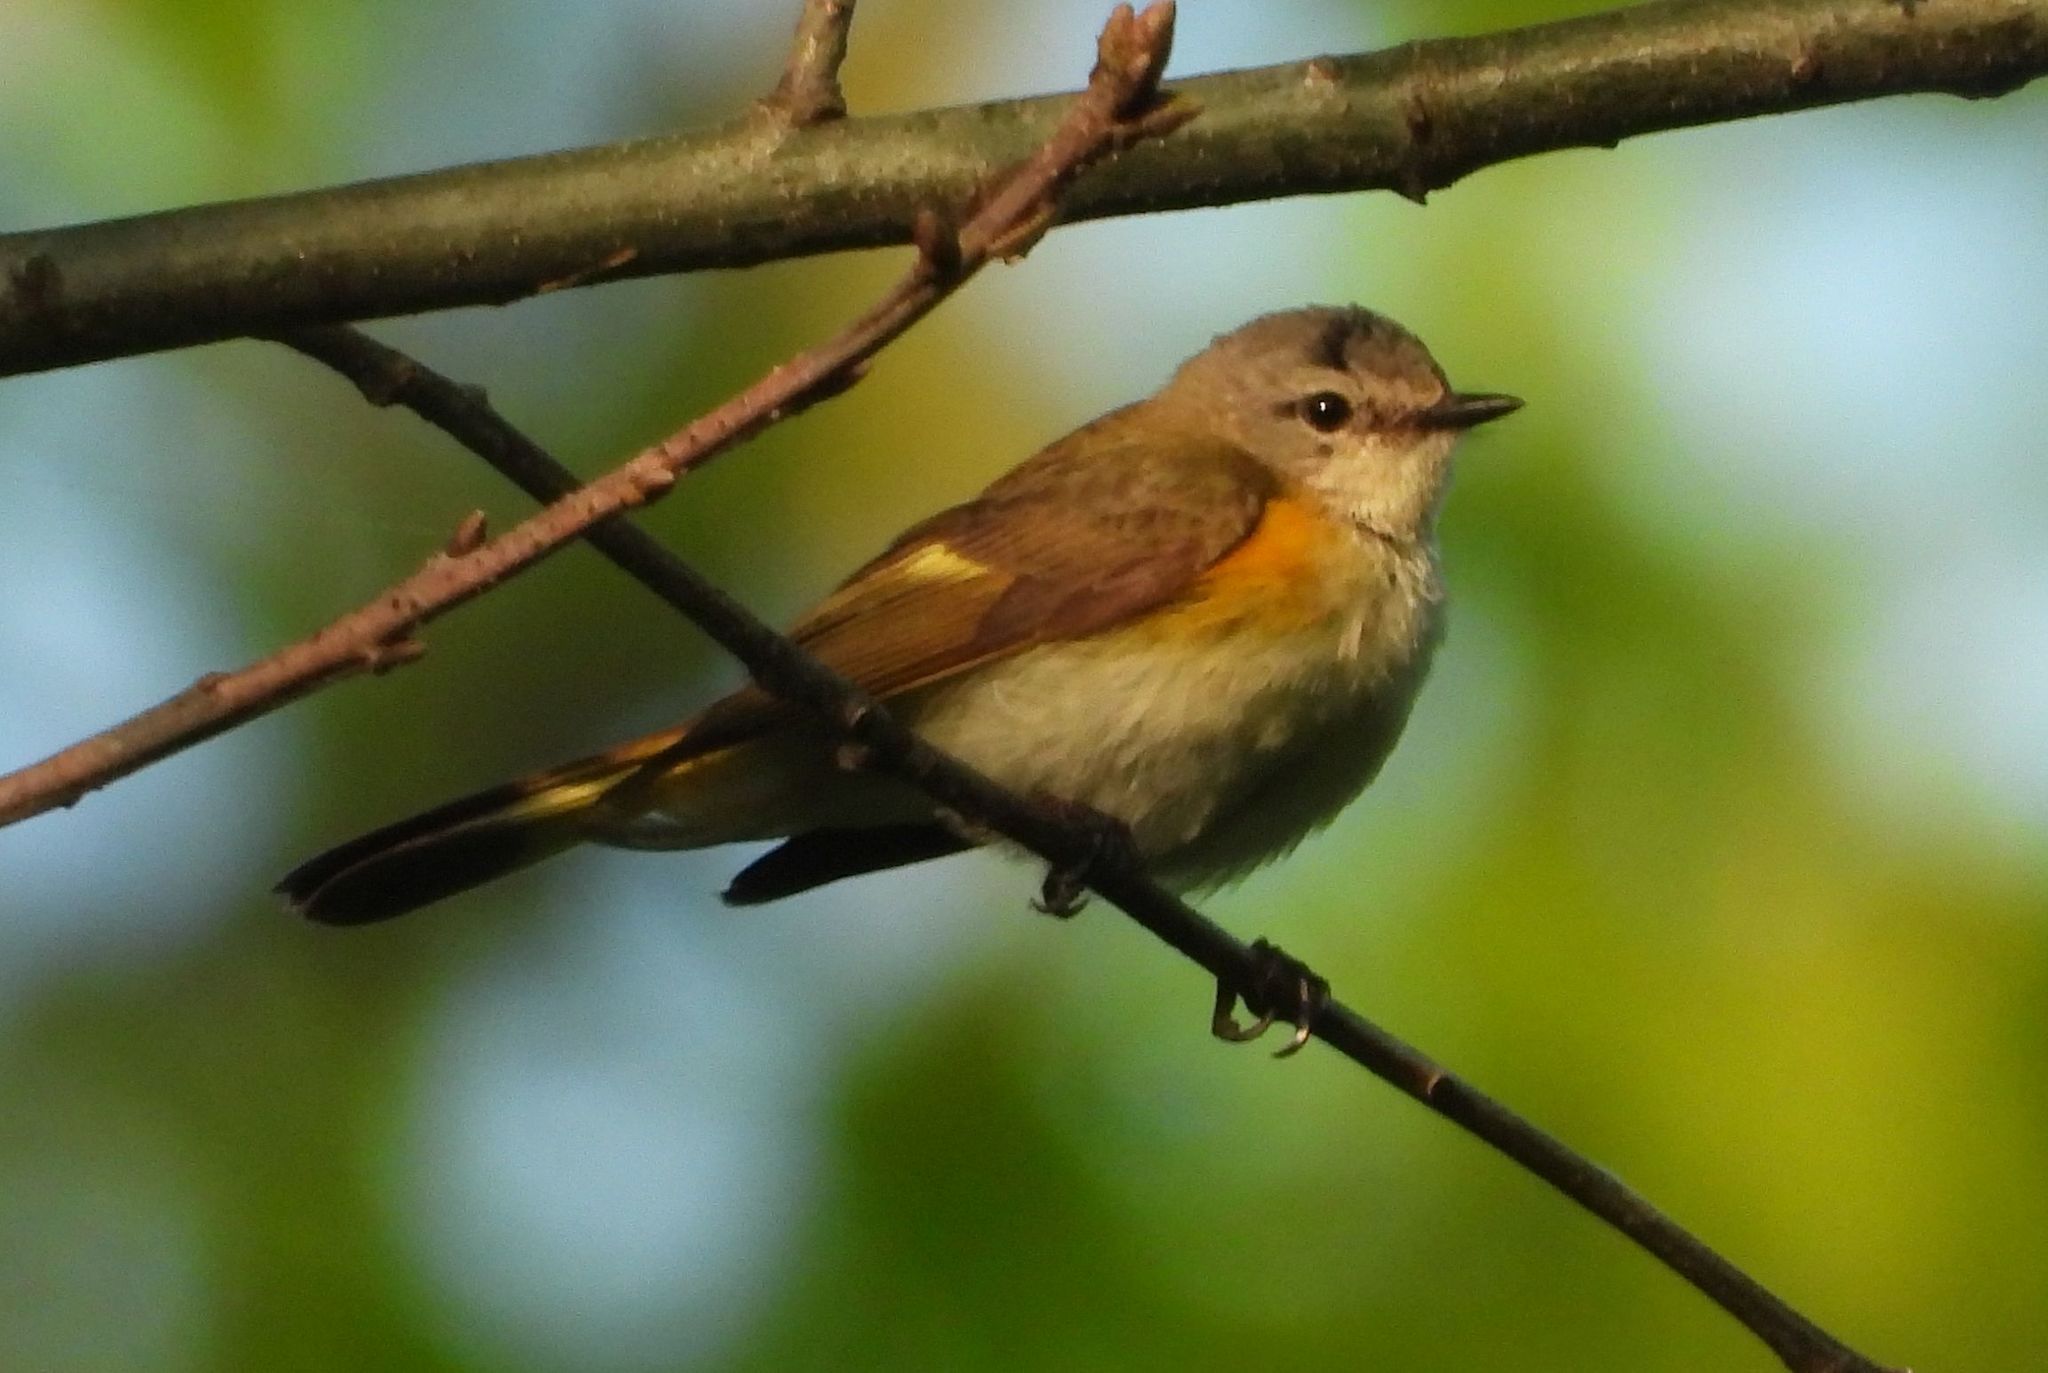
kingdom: Animalia
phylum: Chordata
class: Aves
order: Passeriformes
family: Parulidae
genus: Setophaga
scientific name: Setophaga ruticilla
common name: American redstart
